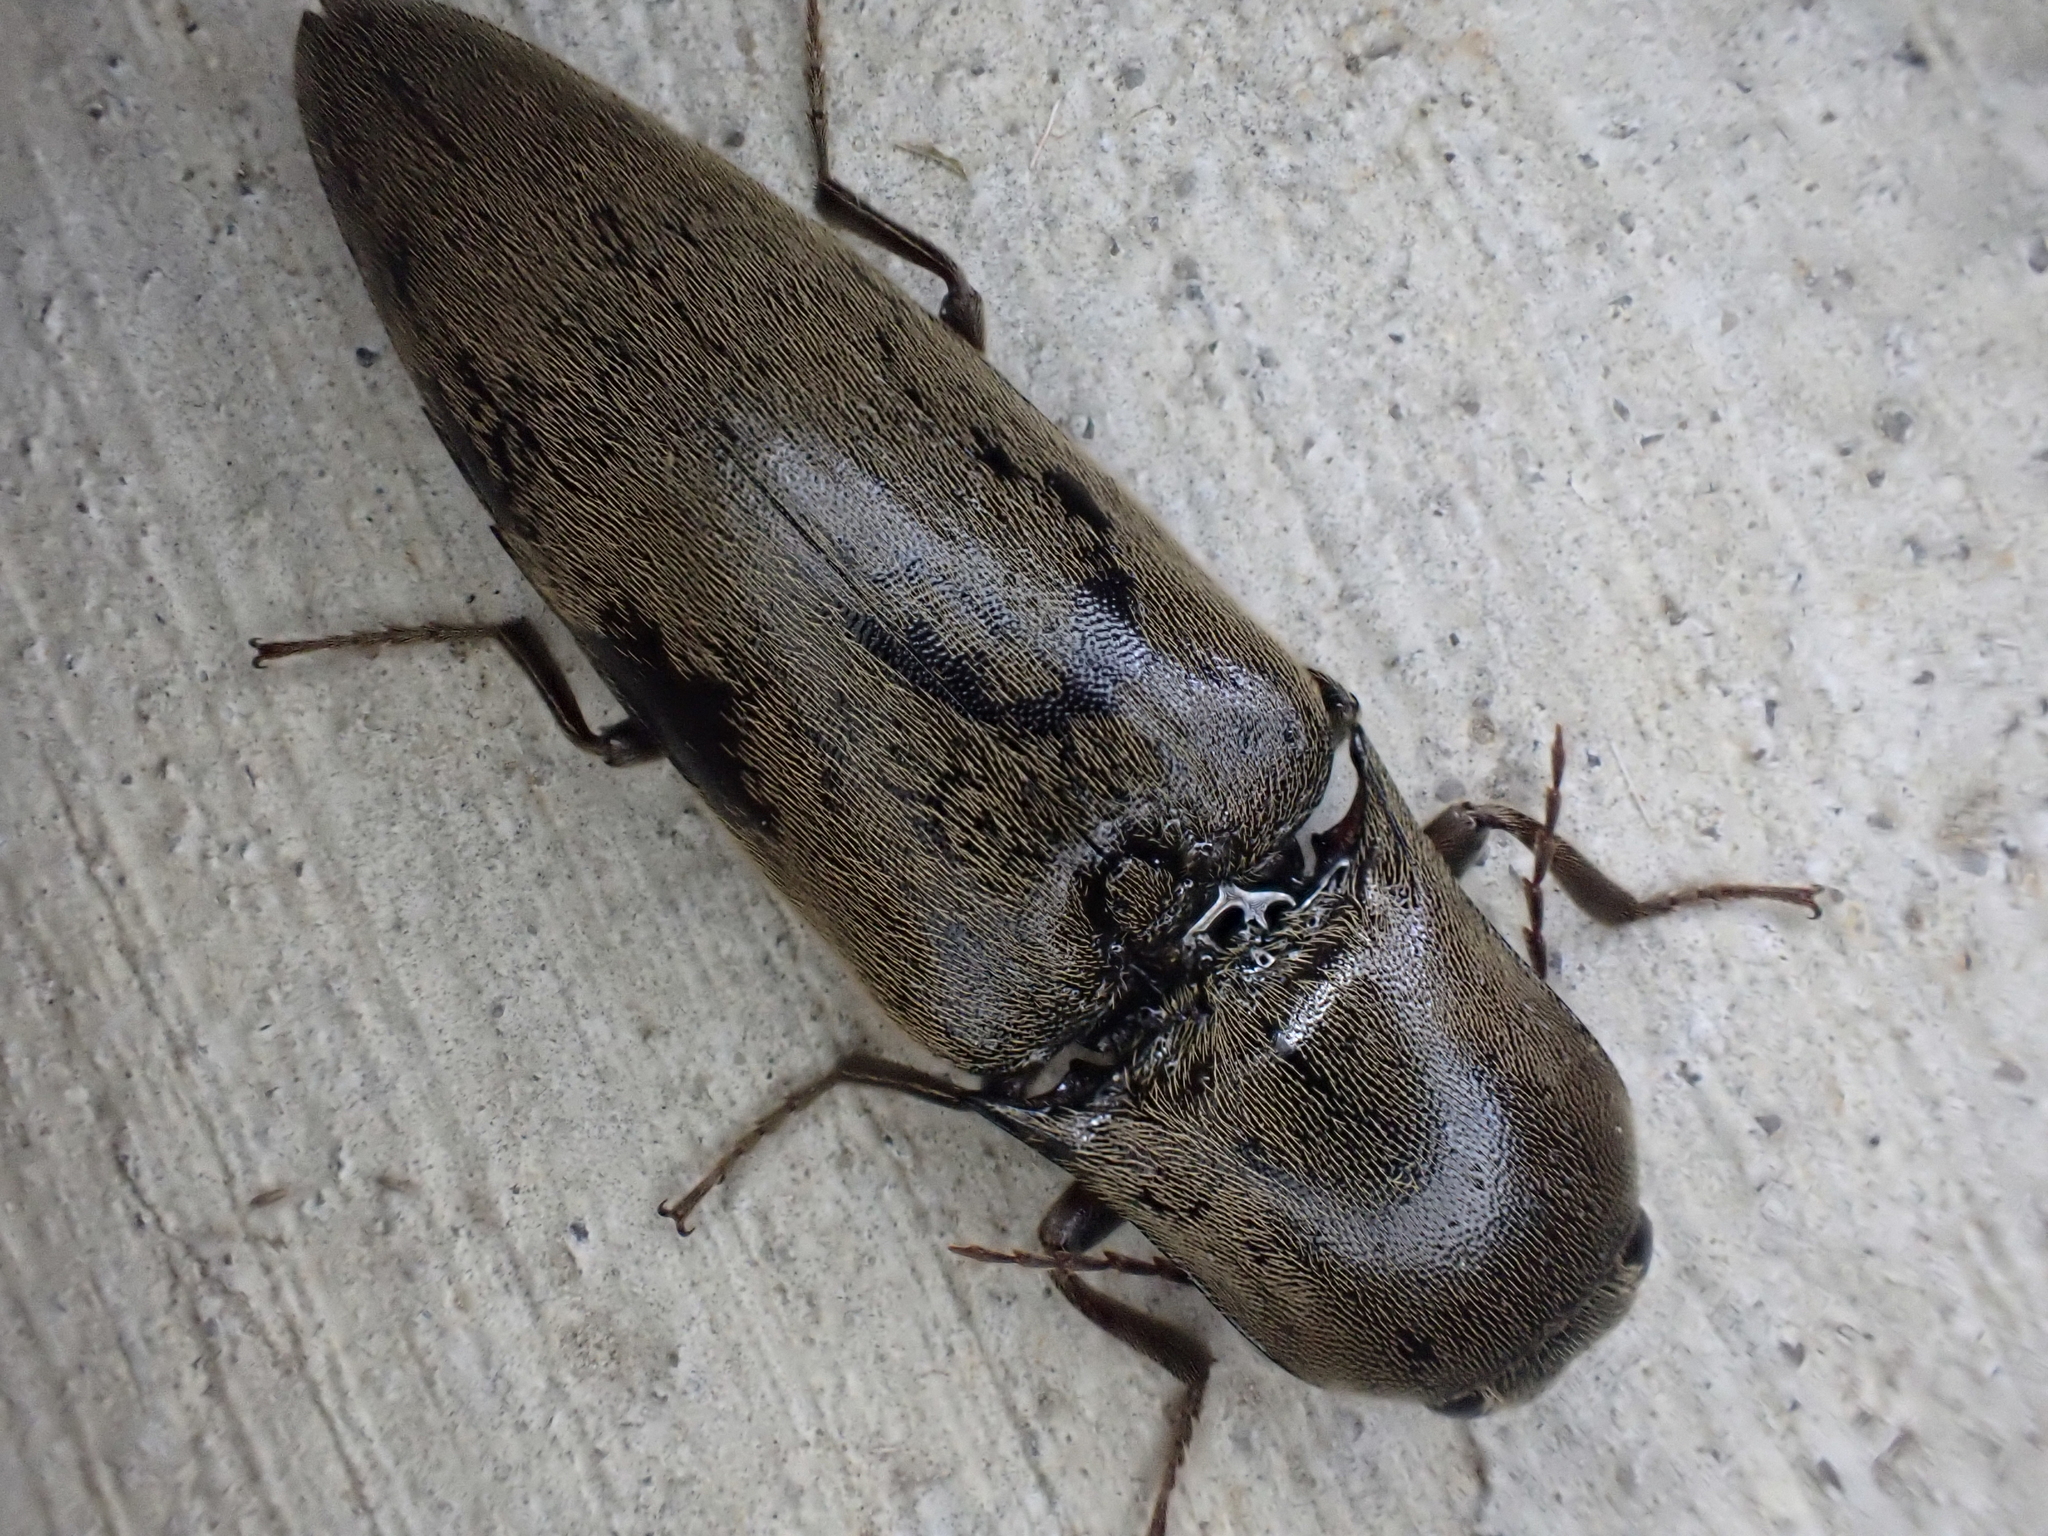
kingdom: Animalia
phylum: Arthropoda
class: Insecta
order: Coleoptera
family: Elateridae
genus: Orthostethus
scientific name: Orthostethus infuscatus
